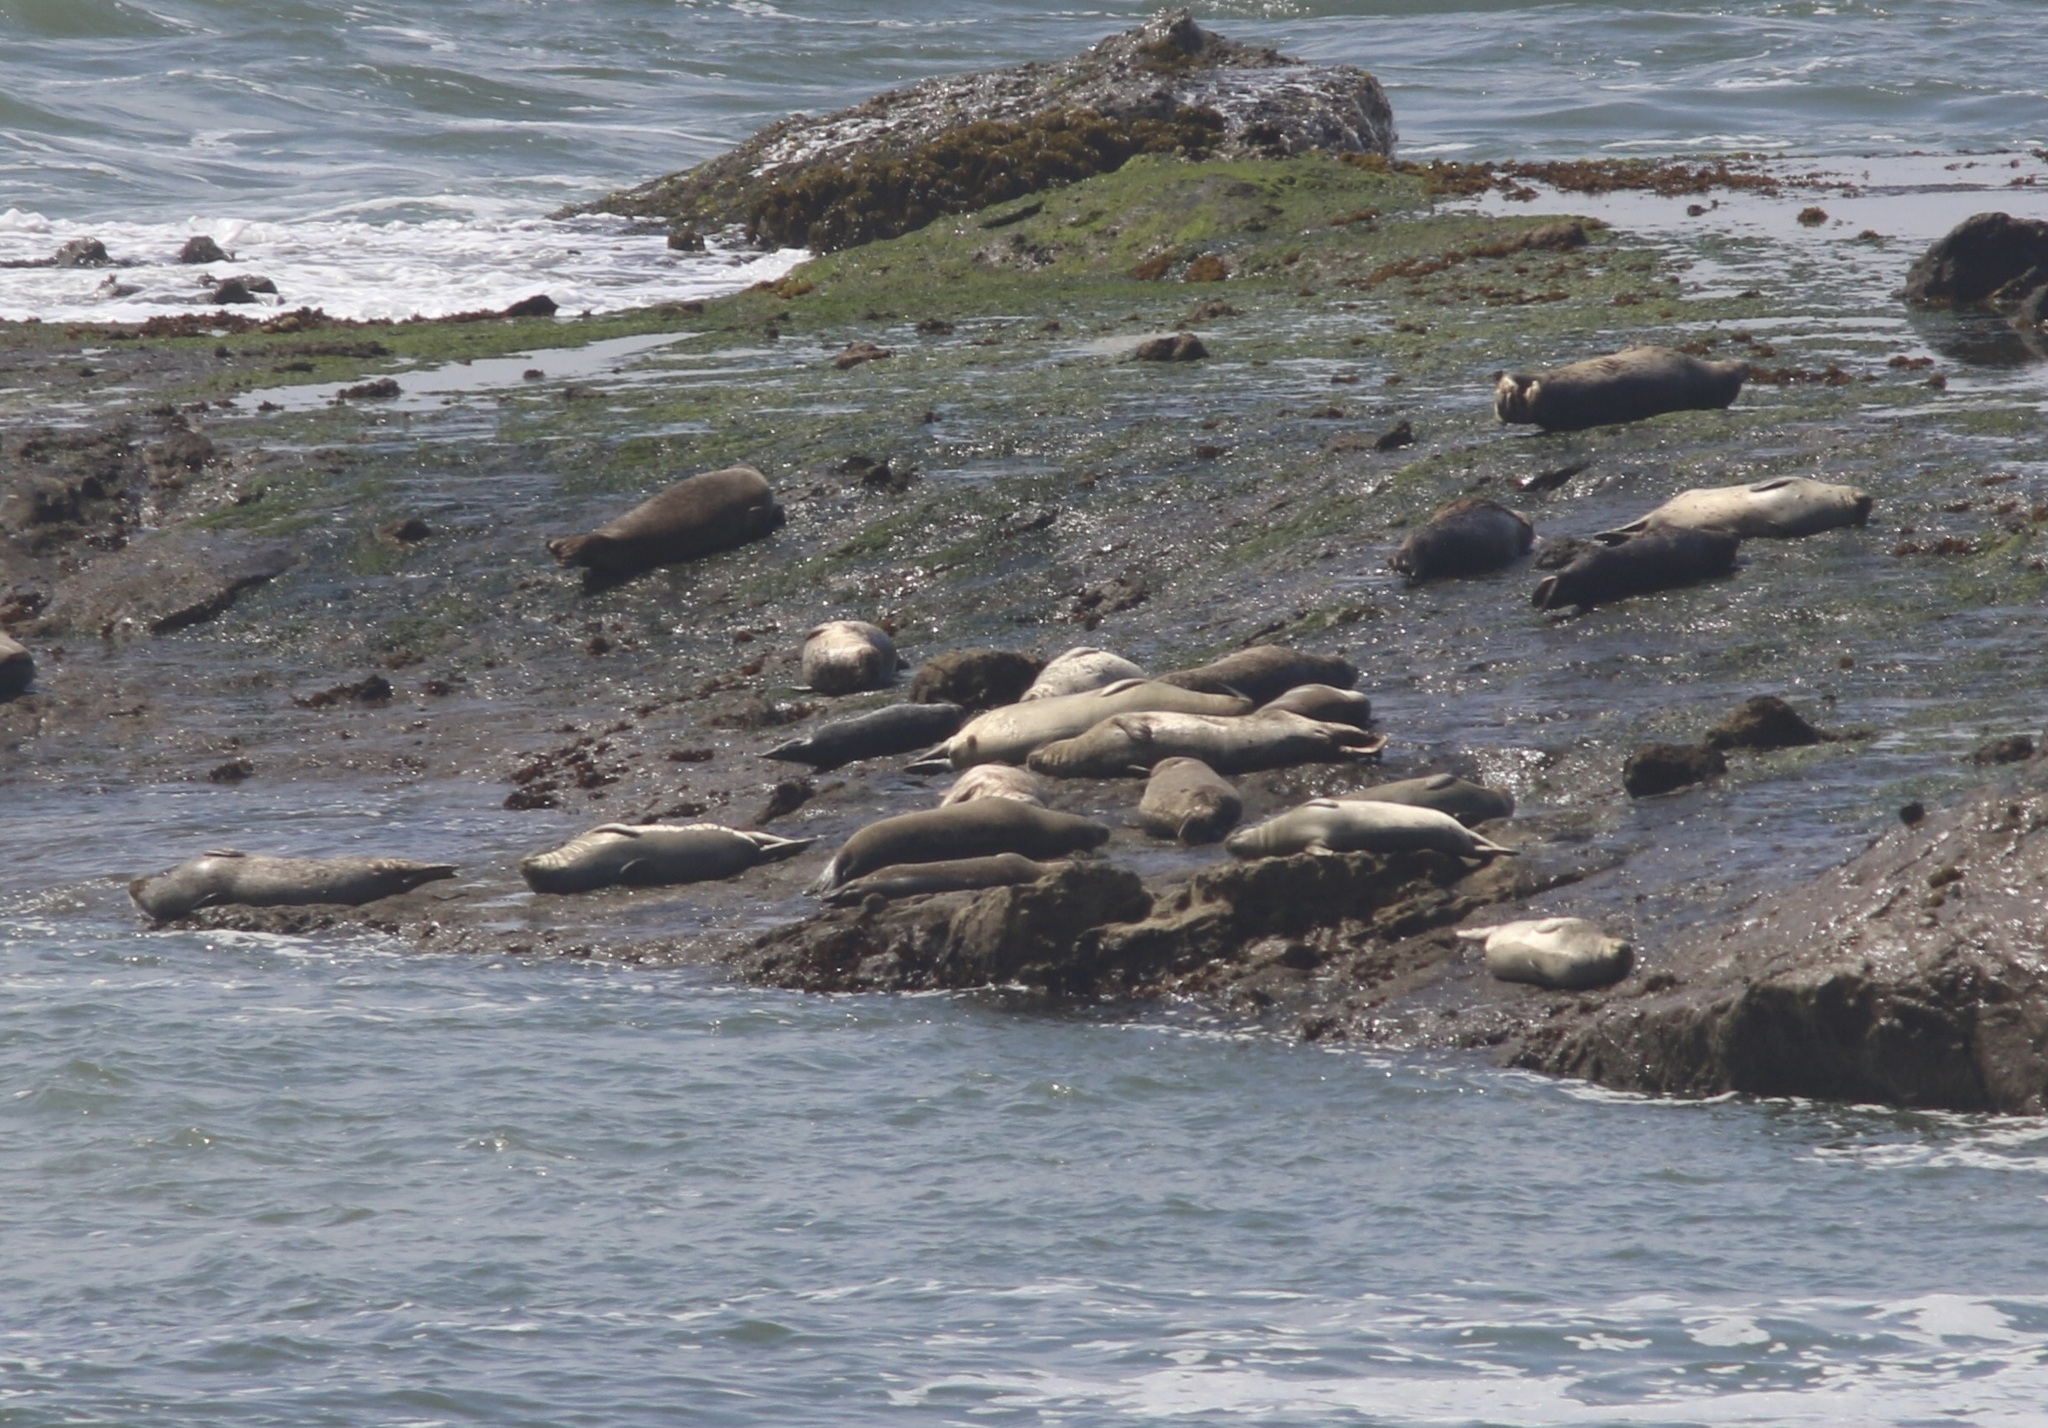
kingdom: Animalia
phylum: Chordata
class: Mammalia
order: Carnivora
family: Phocidae
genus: Phoca
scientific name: Phoca vitulina
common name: Harbor seal
